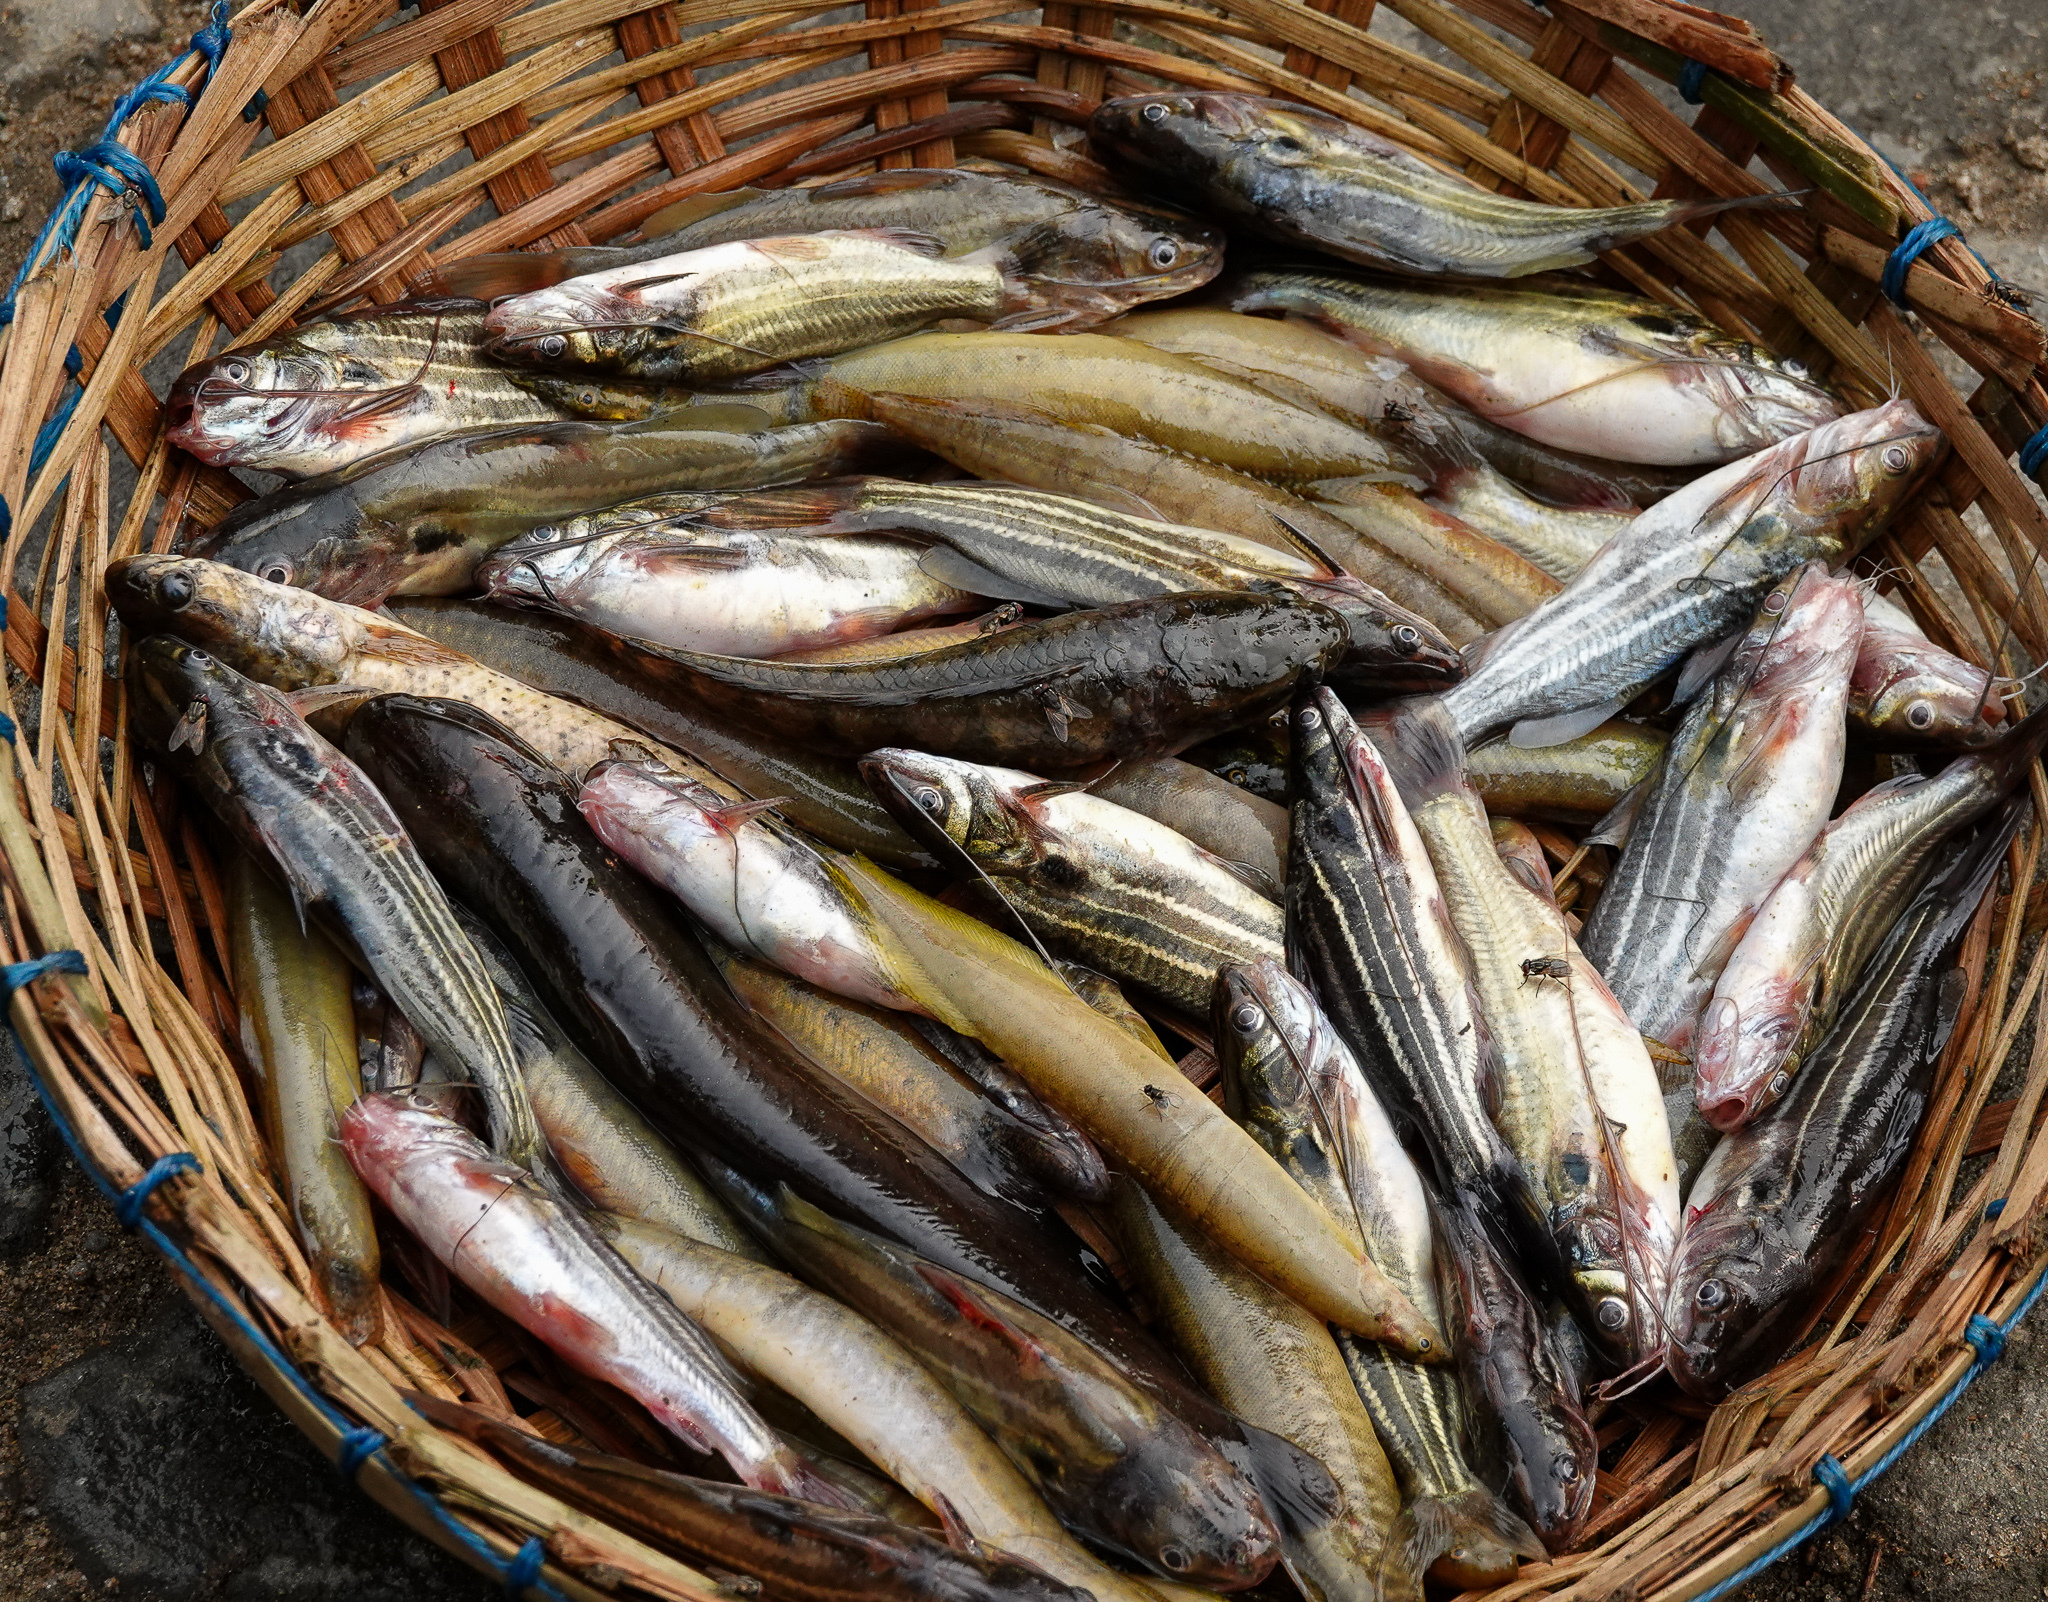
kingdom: Animalia
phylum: Chordata
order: Siluriformes
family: Bagridae
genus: Mystus
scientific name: Mystus tengara
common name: Stripped dwarf catfish
